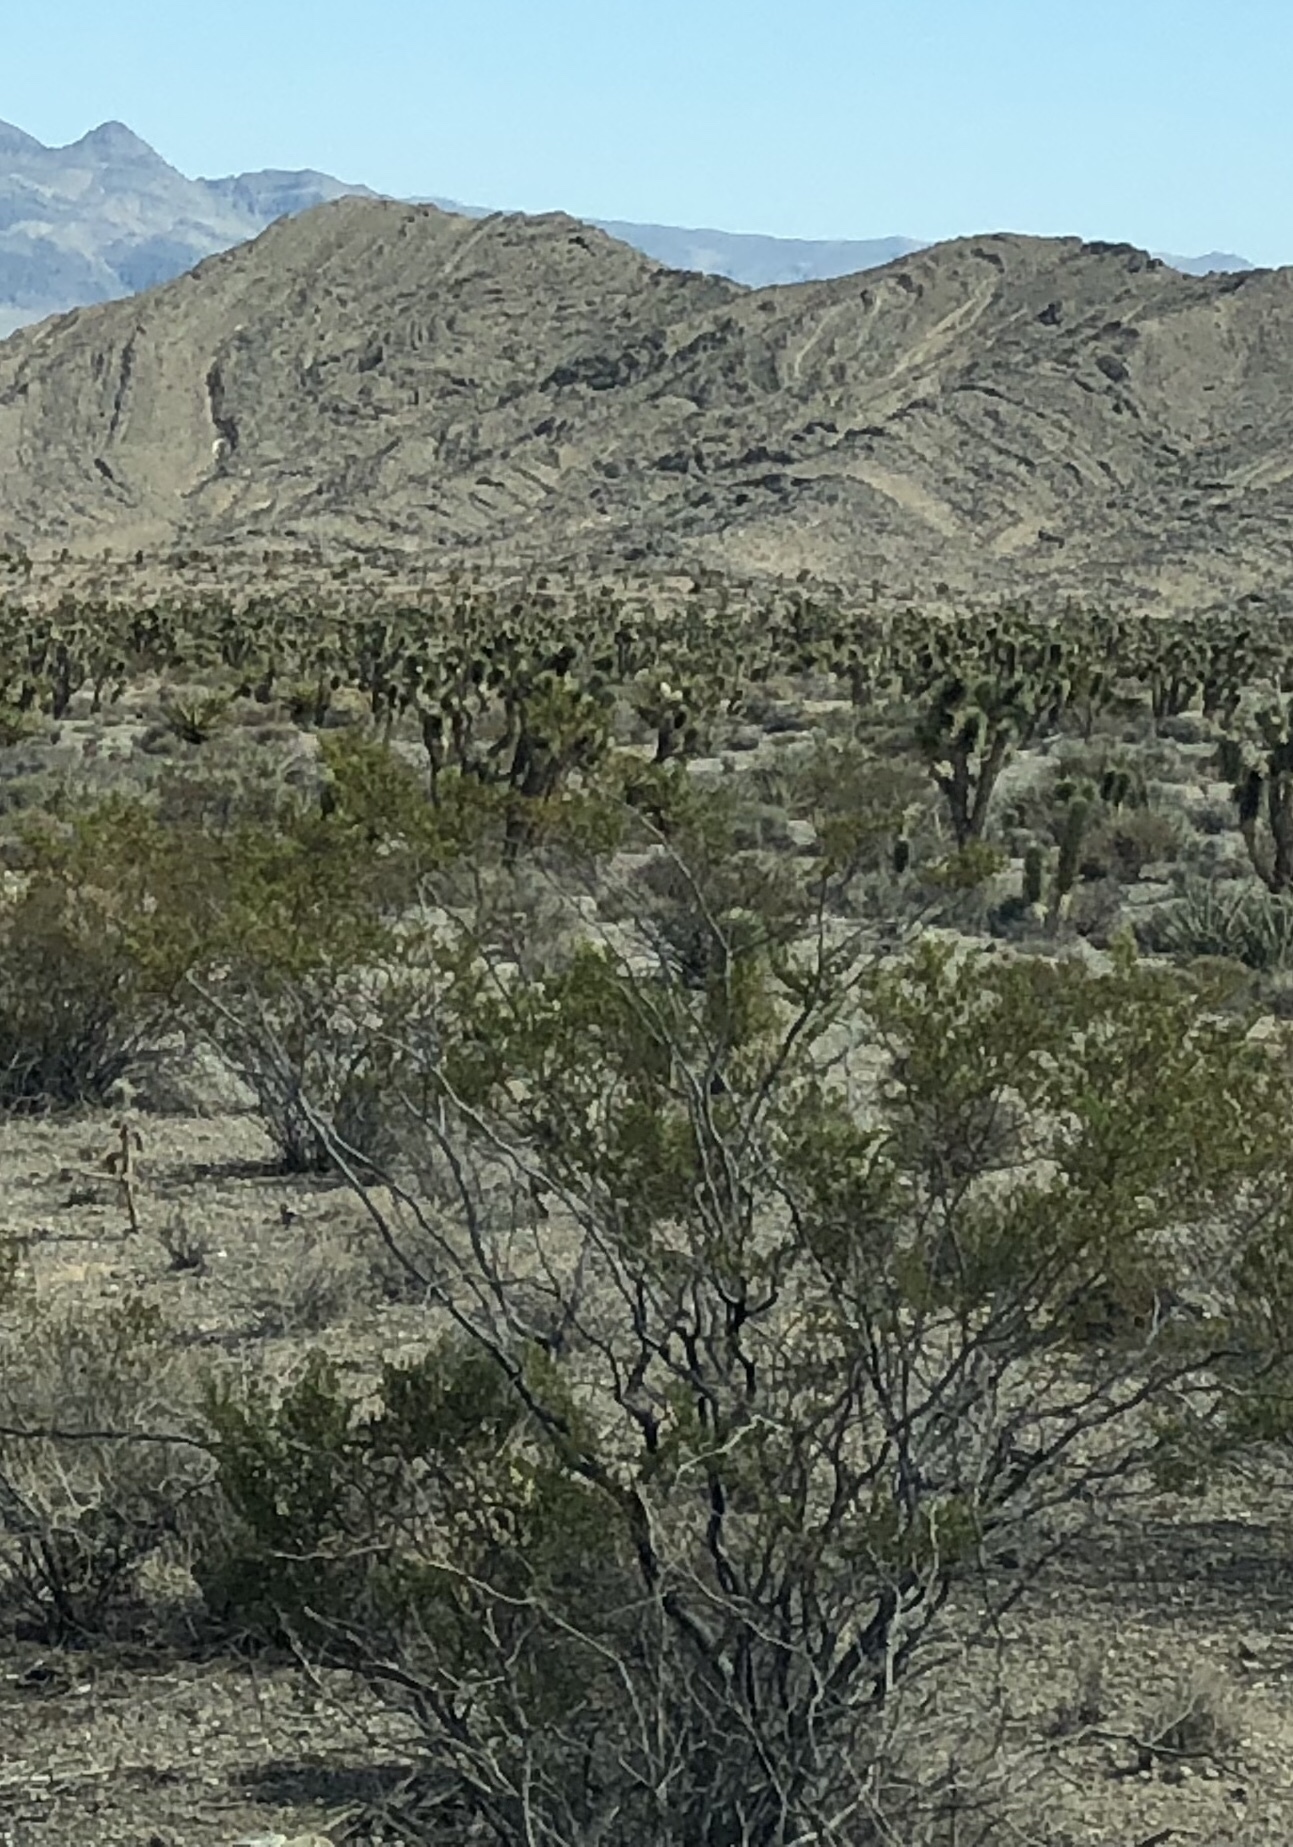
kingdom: Plantae
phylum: Tracheophyta
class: Magnoliopsida
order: Zygophyllales
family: Zygophyllaceae
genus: Larrea
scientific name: Larrea tridentata
